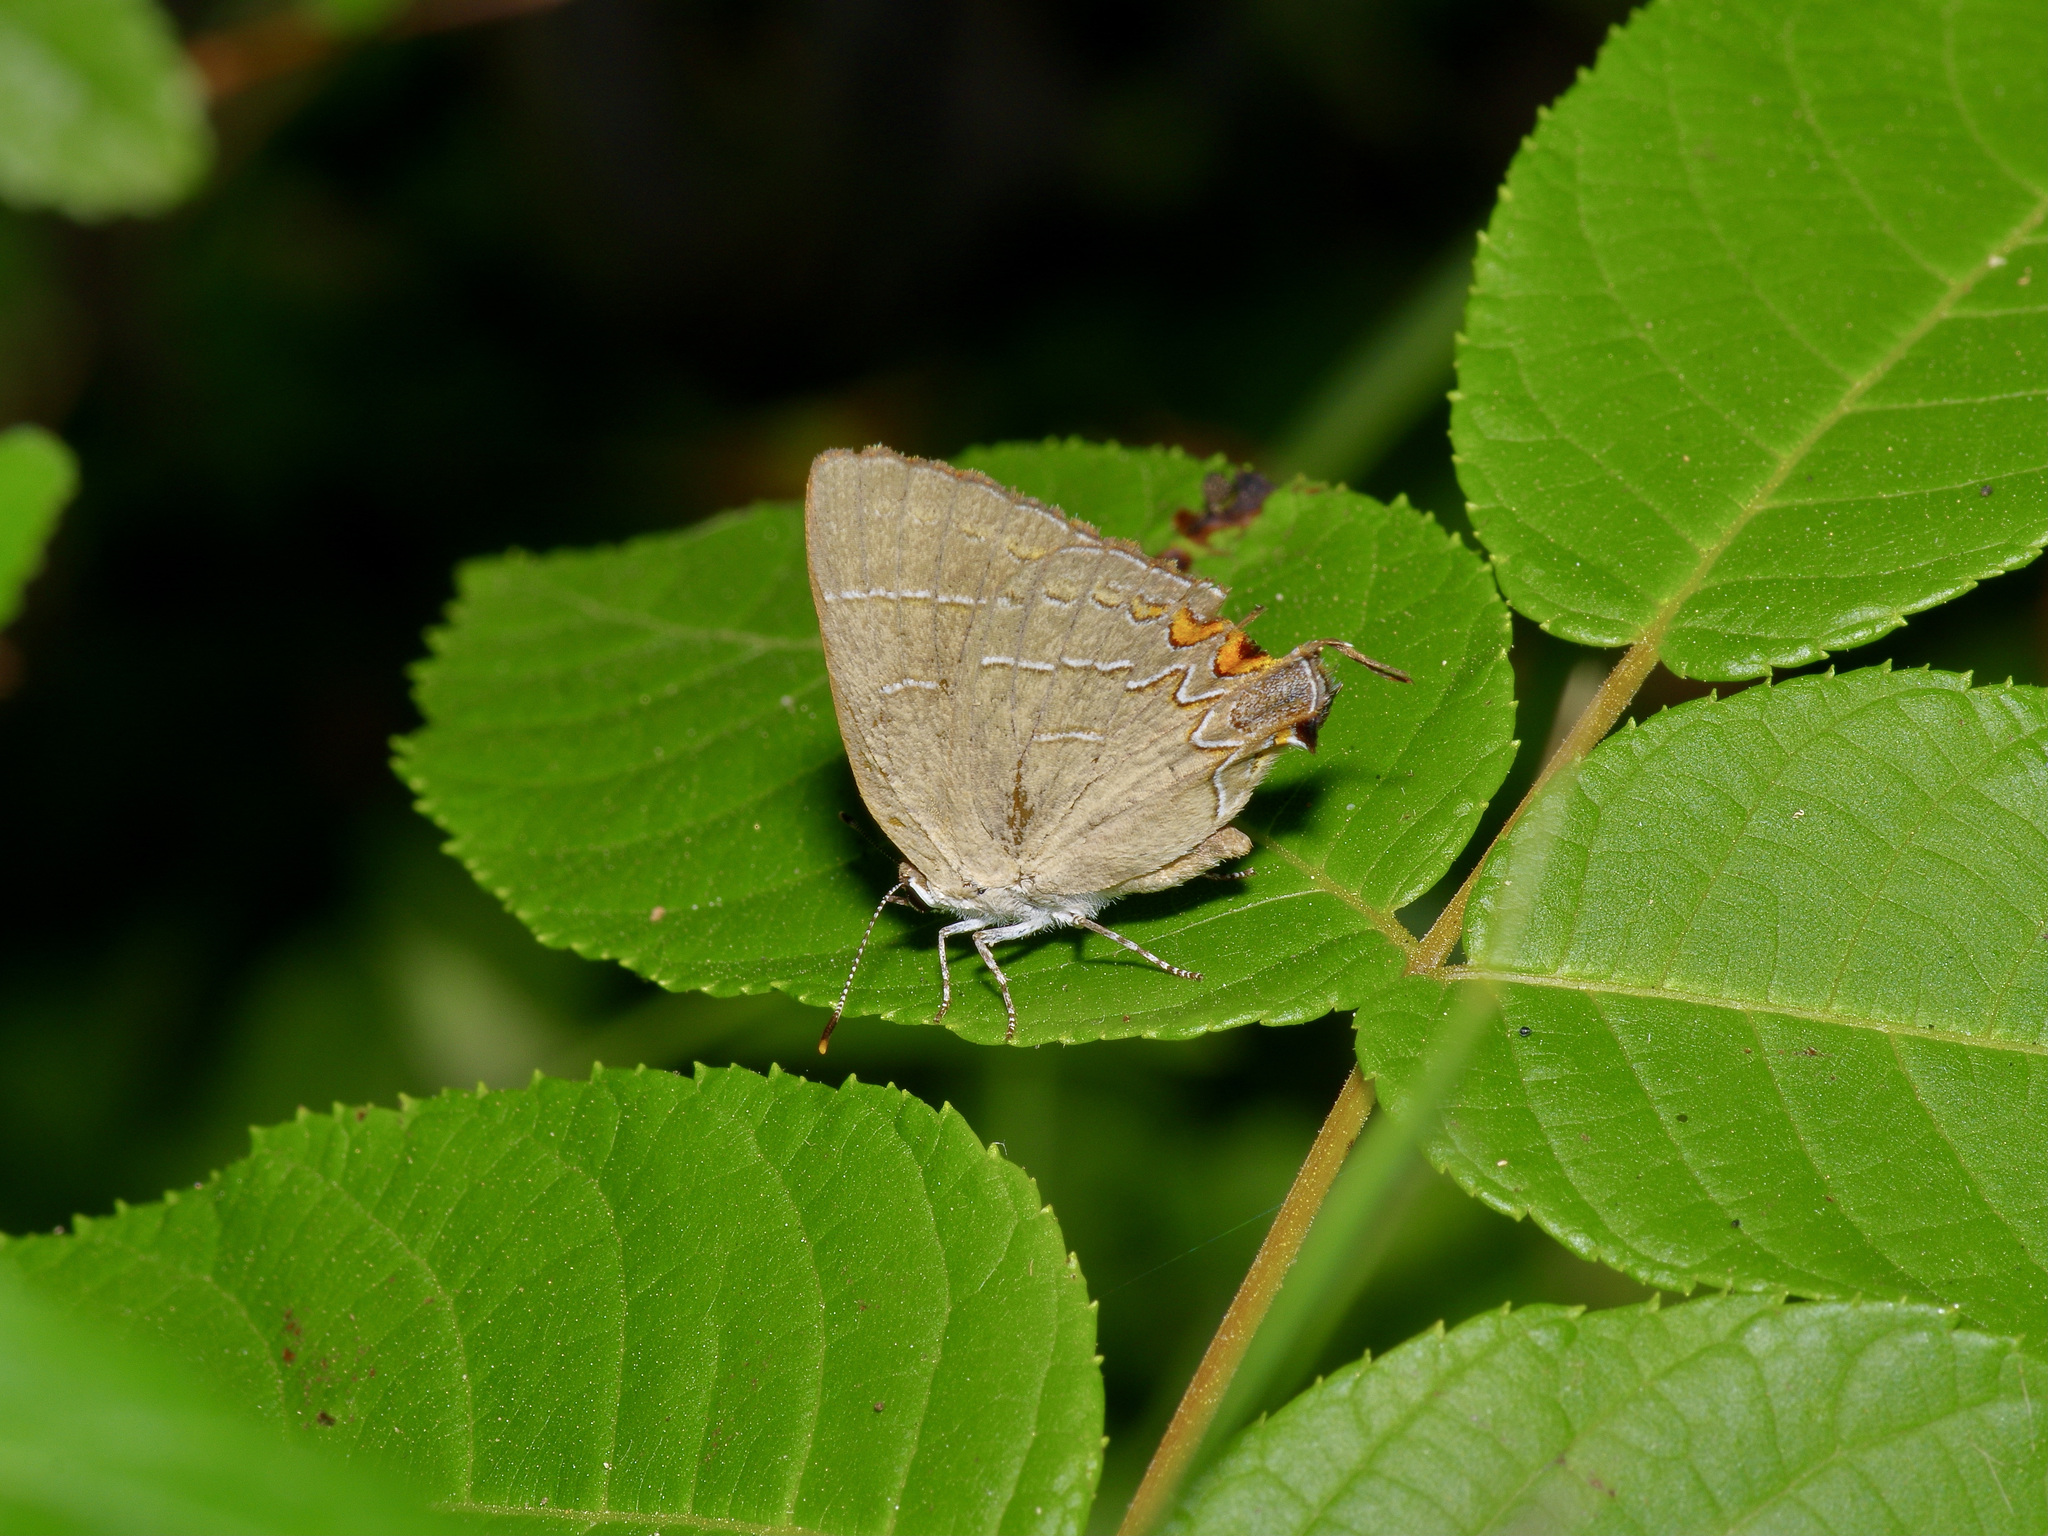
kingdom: Animalia
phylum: Arthropoda
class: Insecta
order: Lepidoptera
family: Lycaenidae
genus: Phaeostrymon
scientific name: Phaeostrymon alcestis
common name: Soapberry hairstreak
